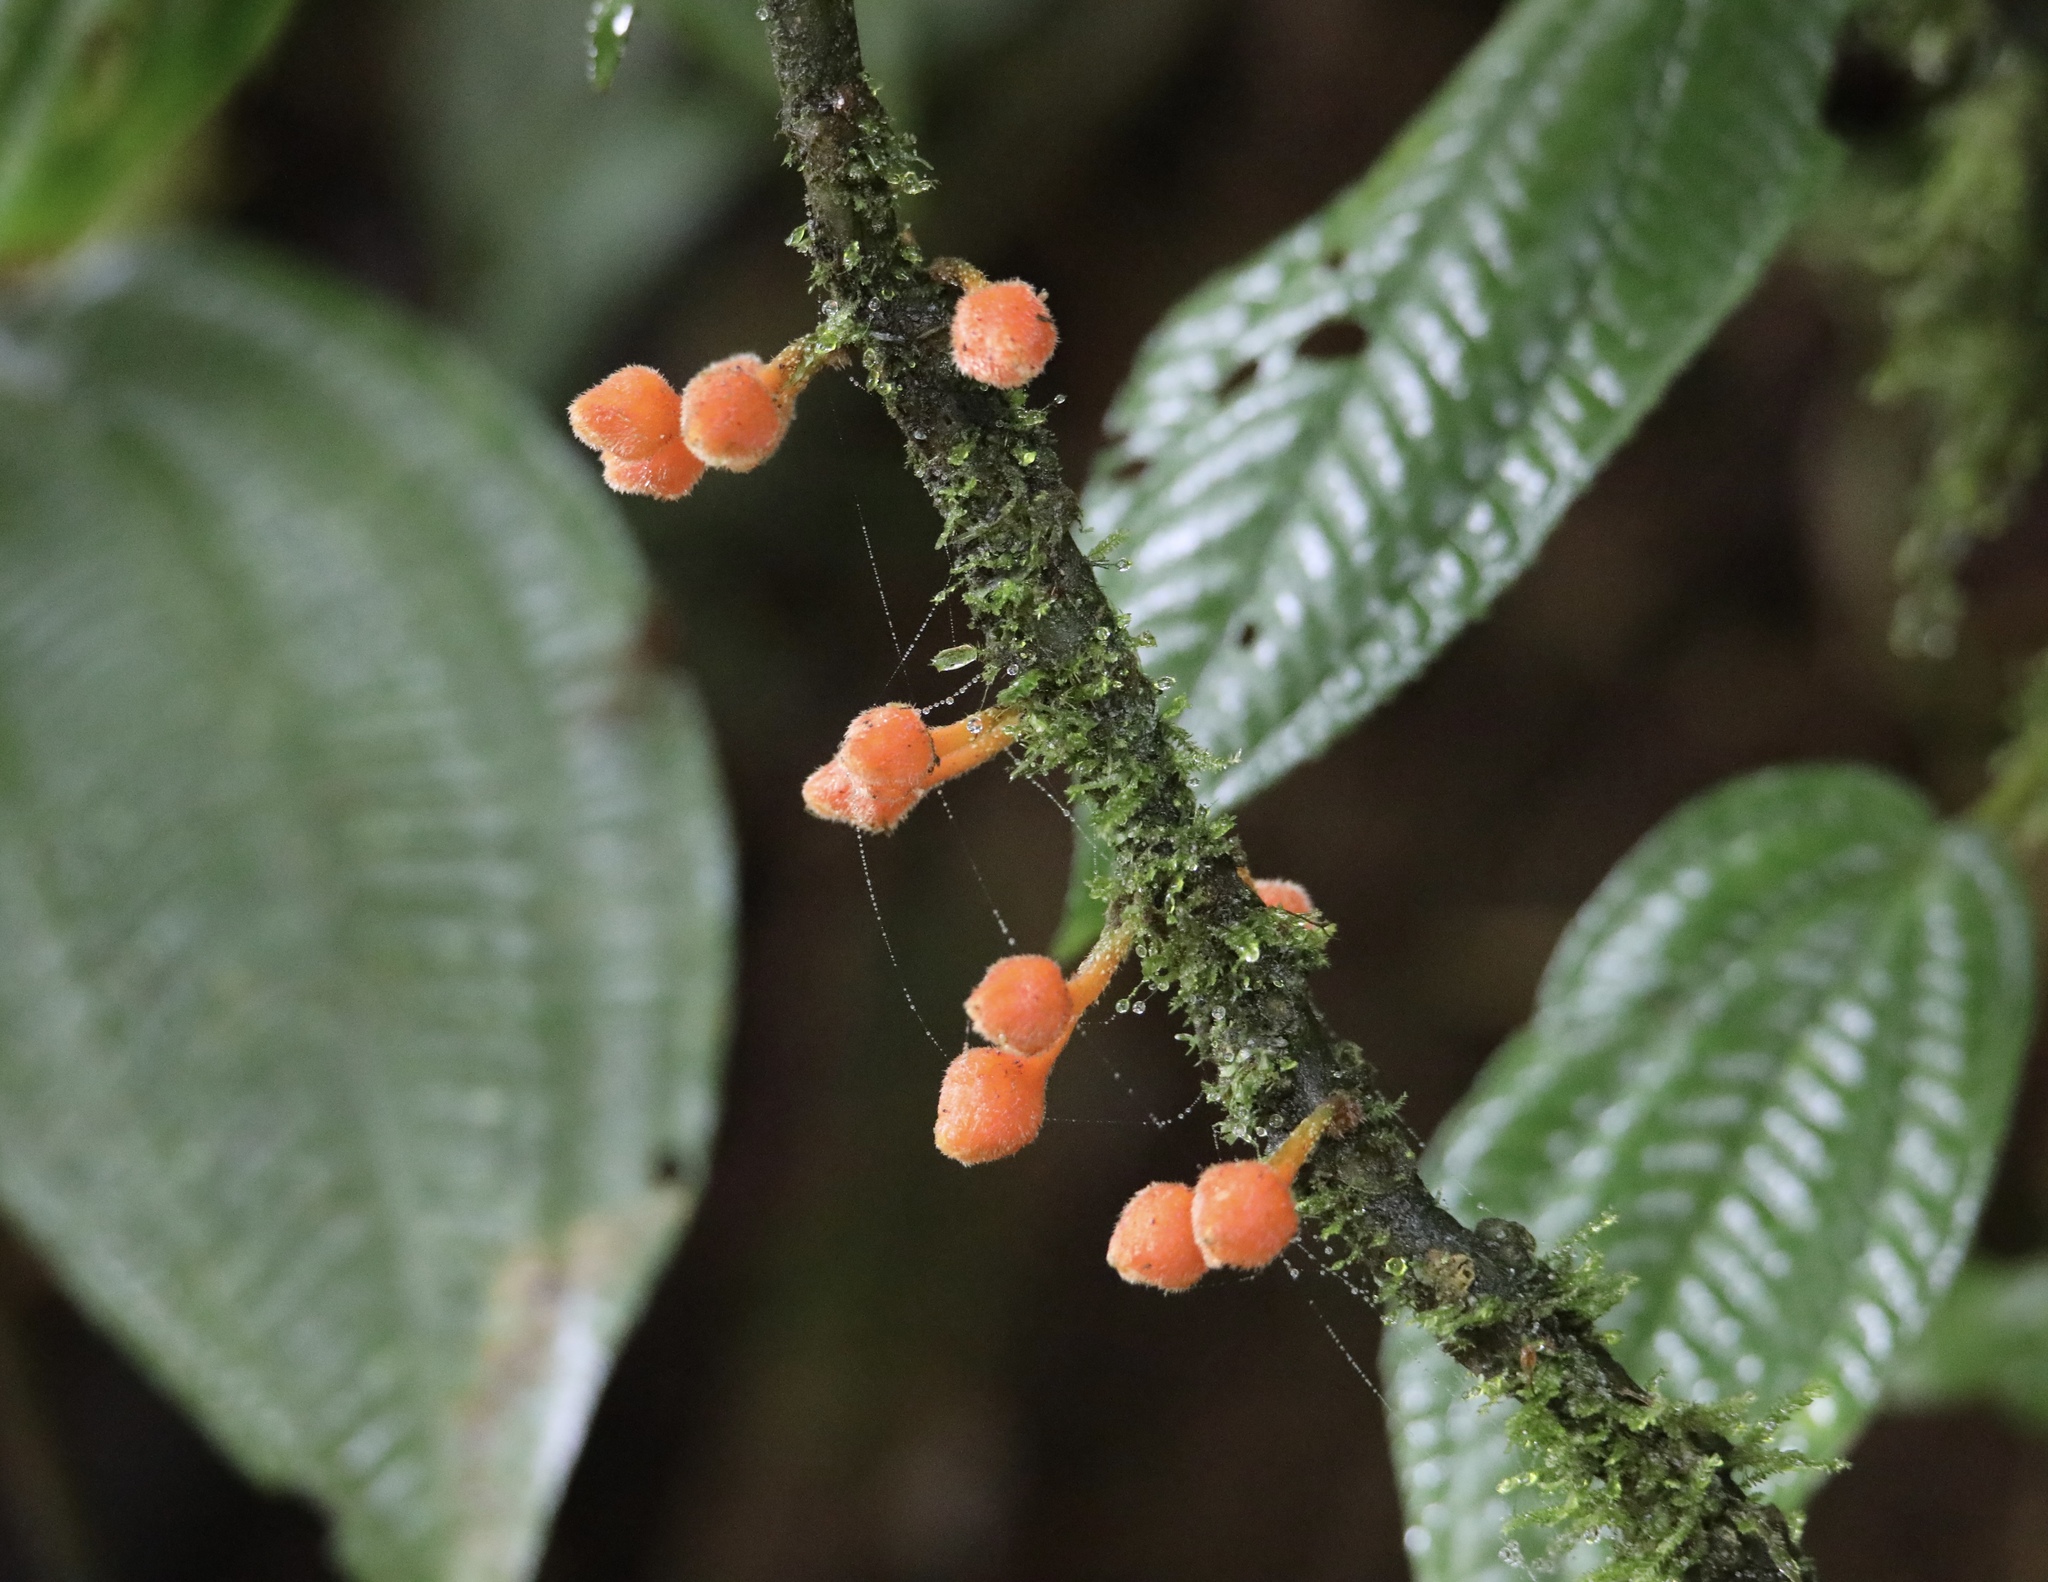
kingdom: Plantae
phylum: Tracheophyta
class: Magnoliopsida
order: Lamiales
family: Gesneriaceae
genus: Besleria
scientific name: Besleria robusta
